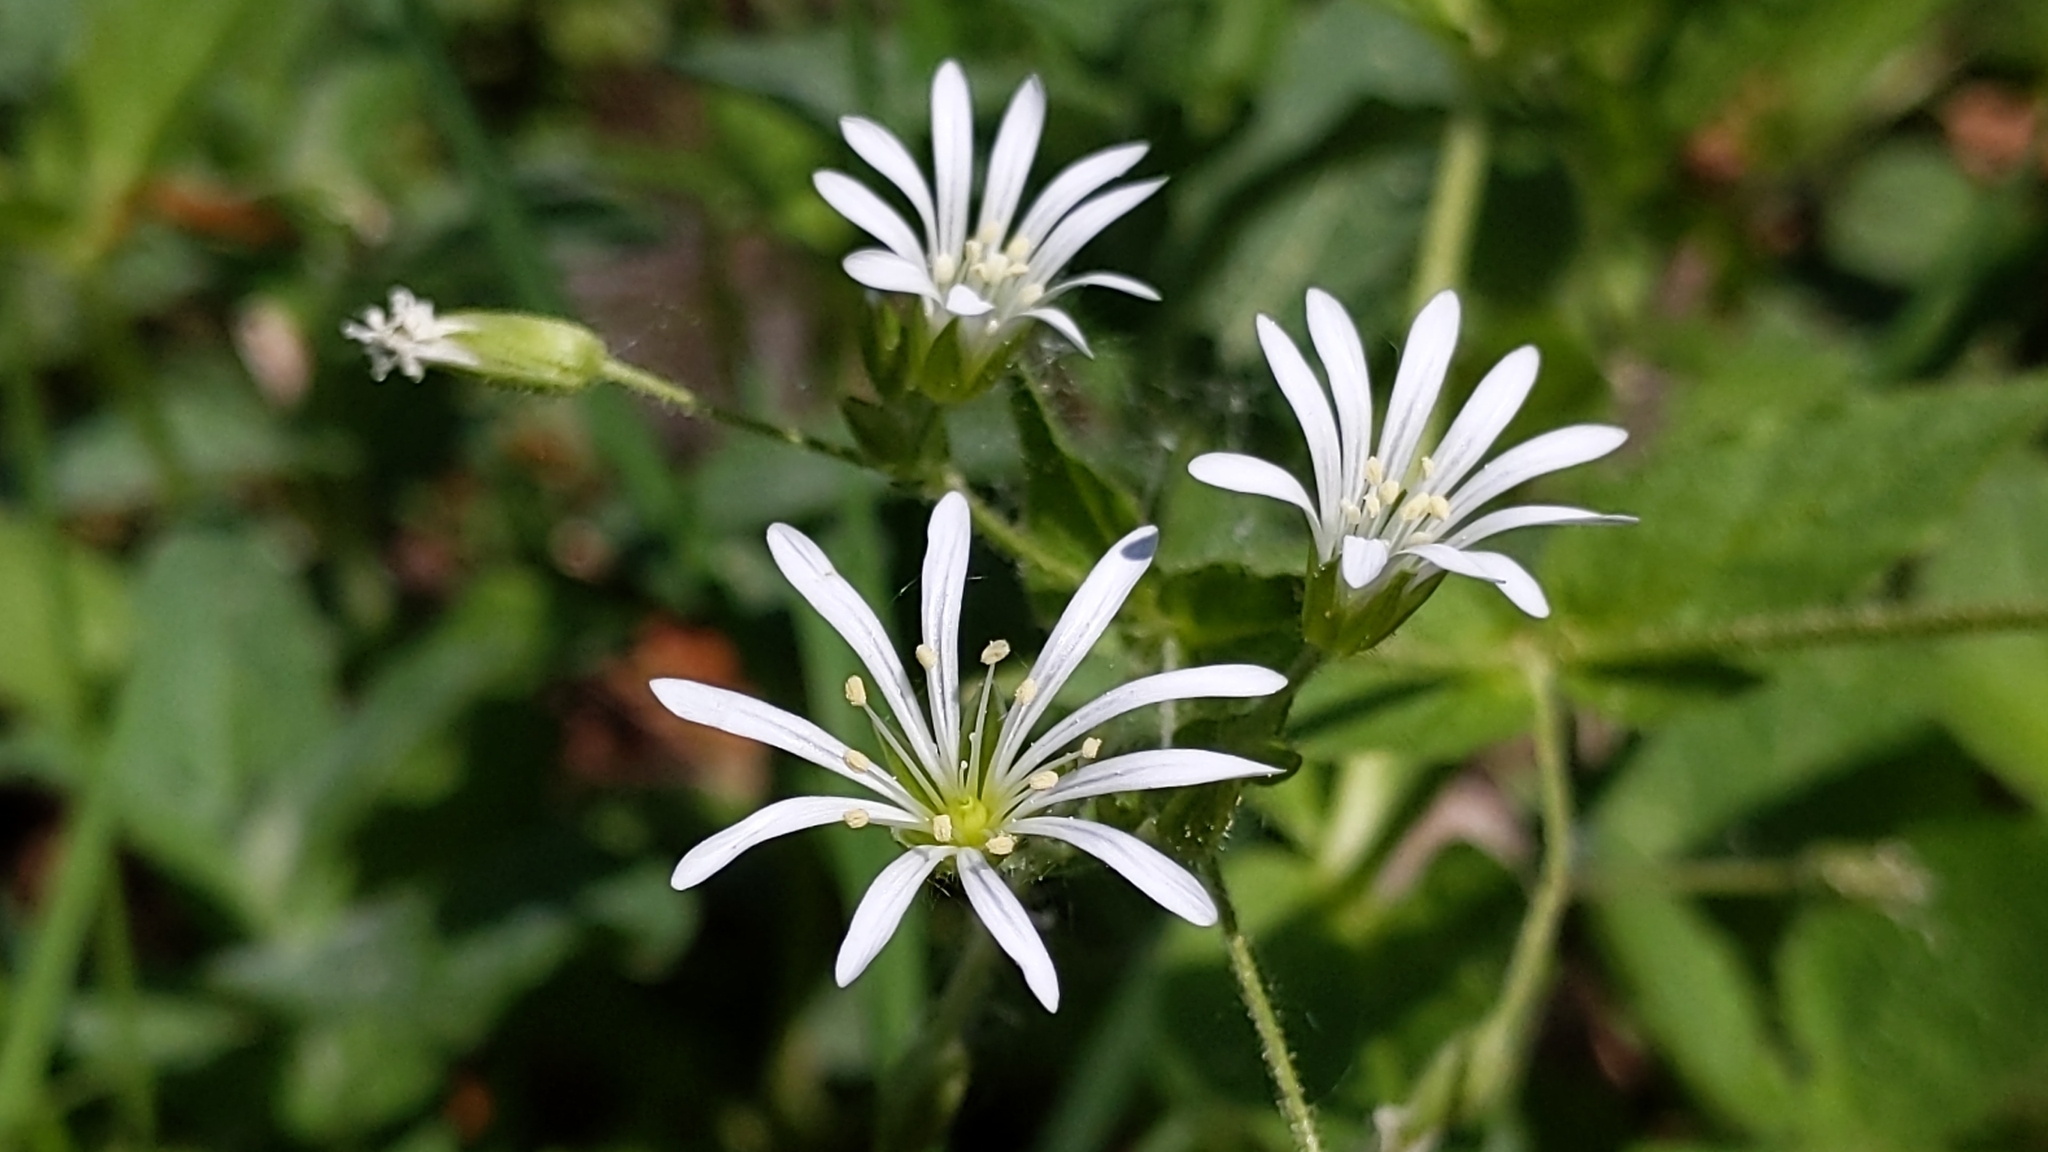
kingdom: Plantae
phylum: Tracheophyta
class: Magnoliopsida
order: Caryophyllales
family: Caryophyllaceae
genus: Stellaria
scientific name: Stellaria nemorum
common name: Wood stitchwort
